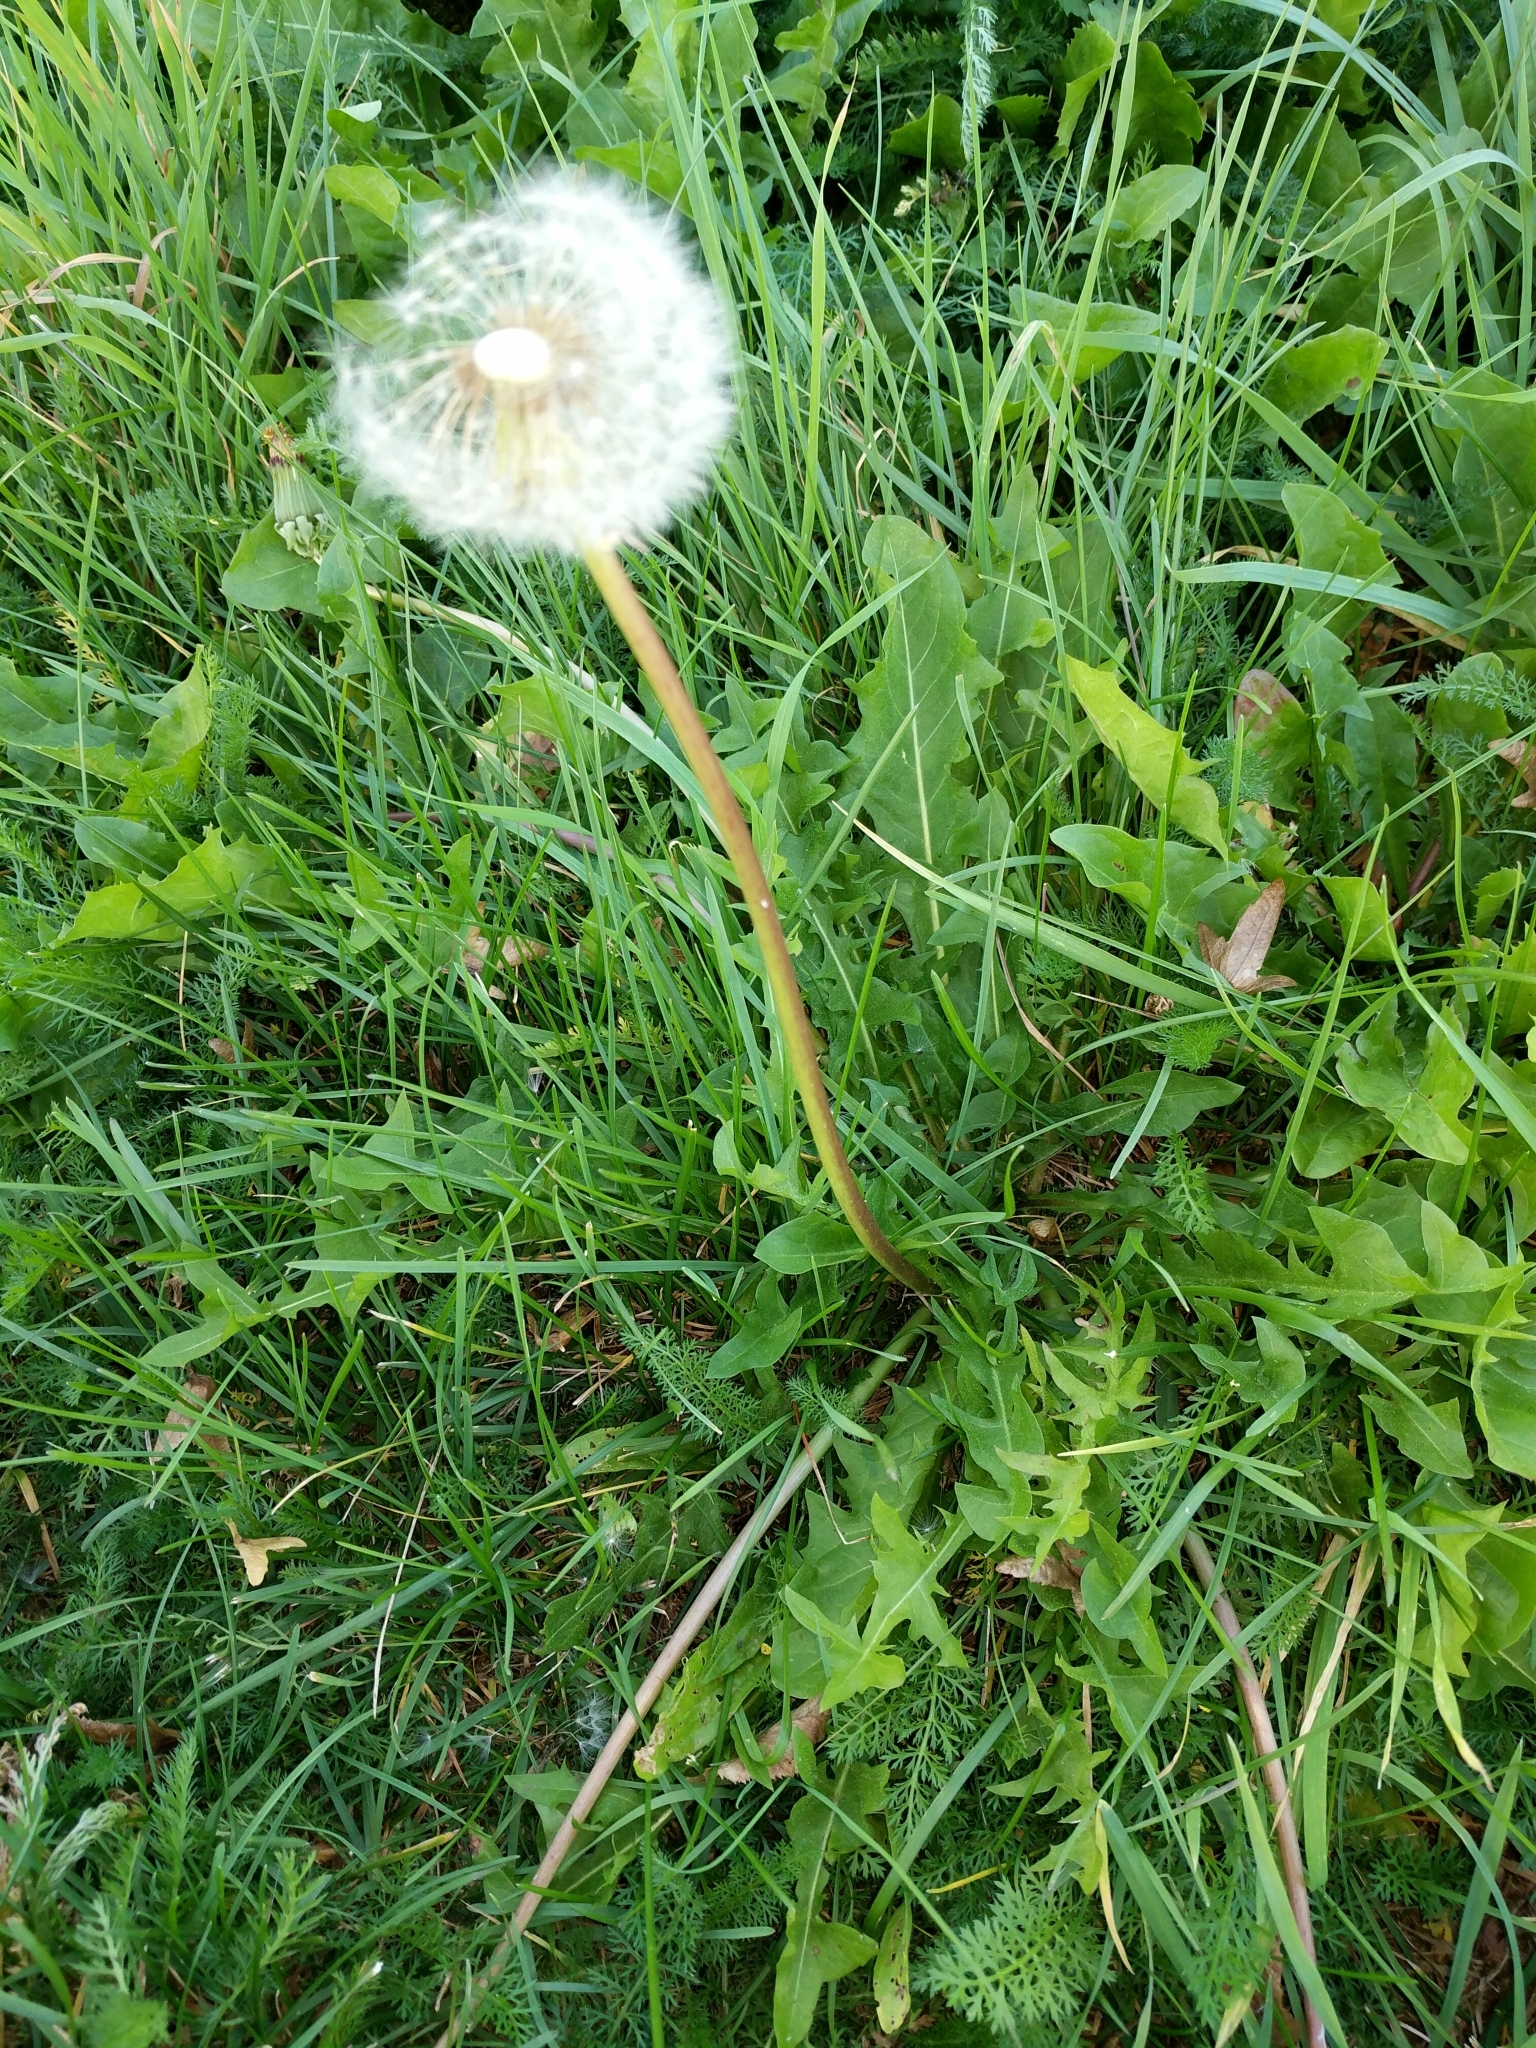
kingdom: Plantae
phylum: Tracheophyta
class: Magnoliopsida
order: Asterales
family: Asteraceae
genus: Taraxacum
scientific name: Taraxacum officinale
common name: Common dandelion
